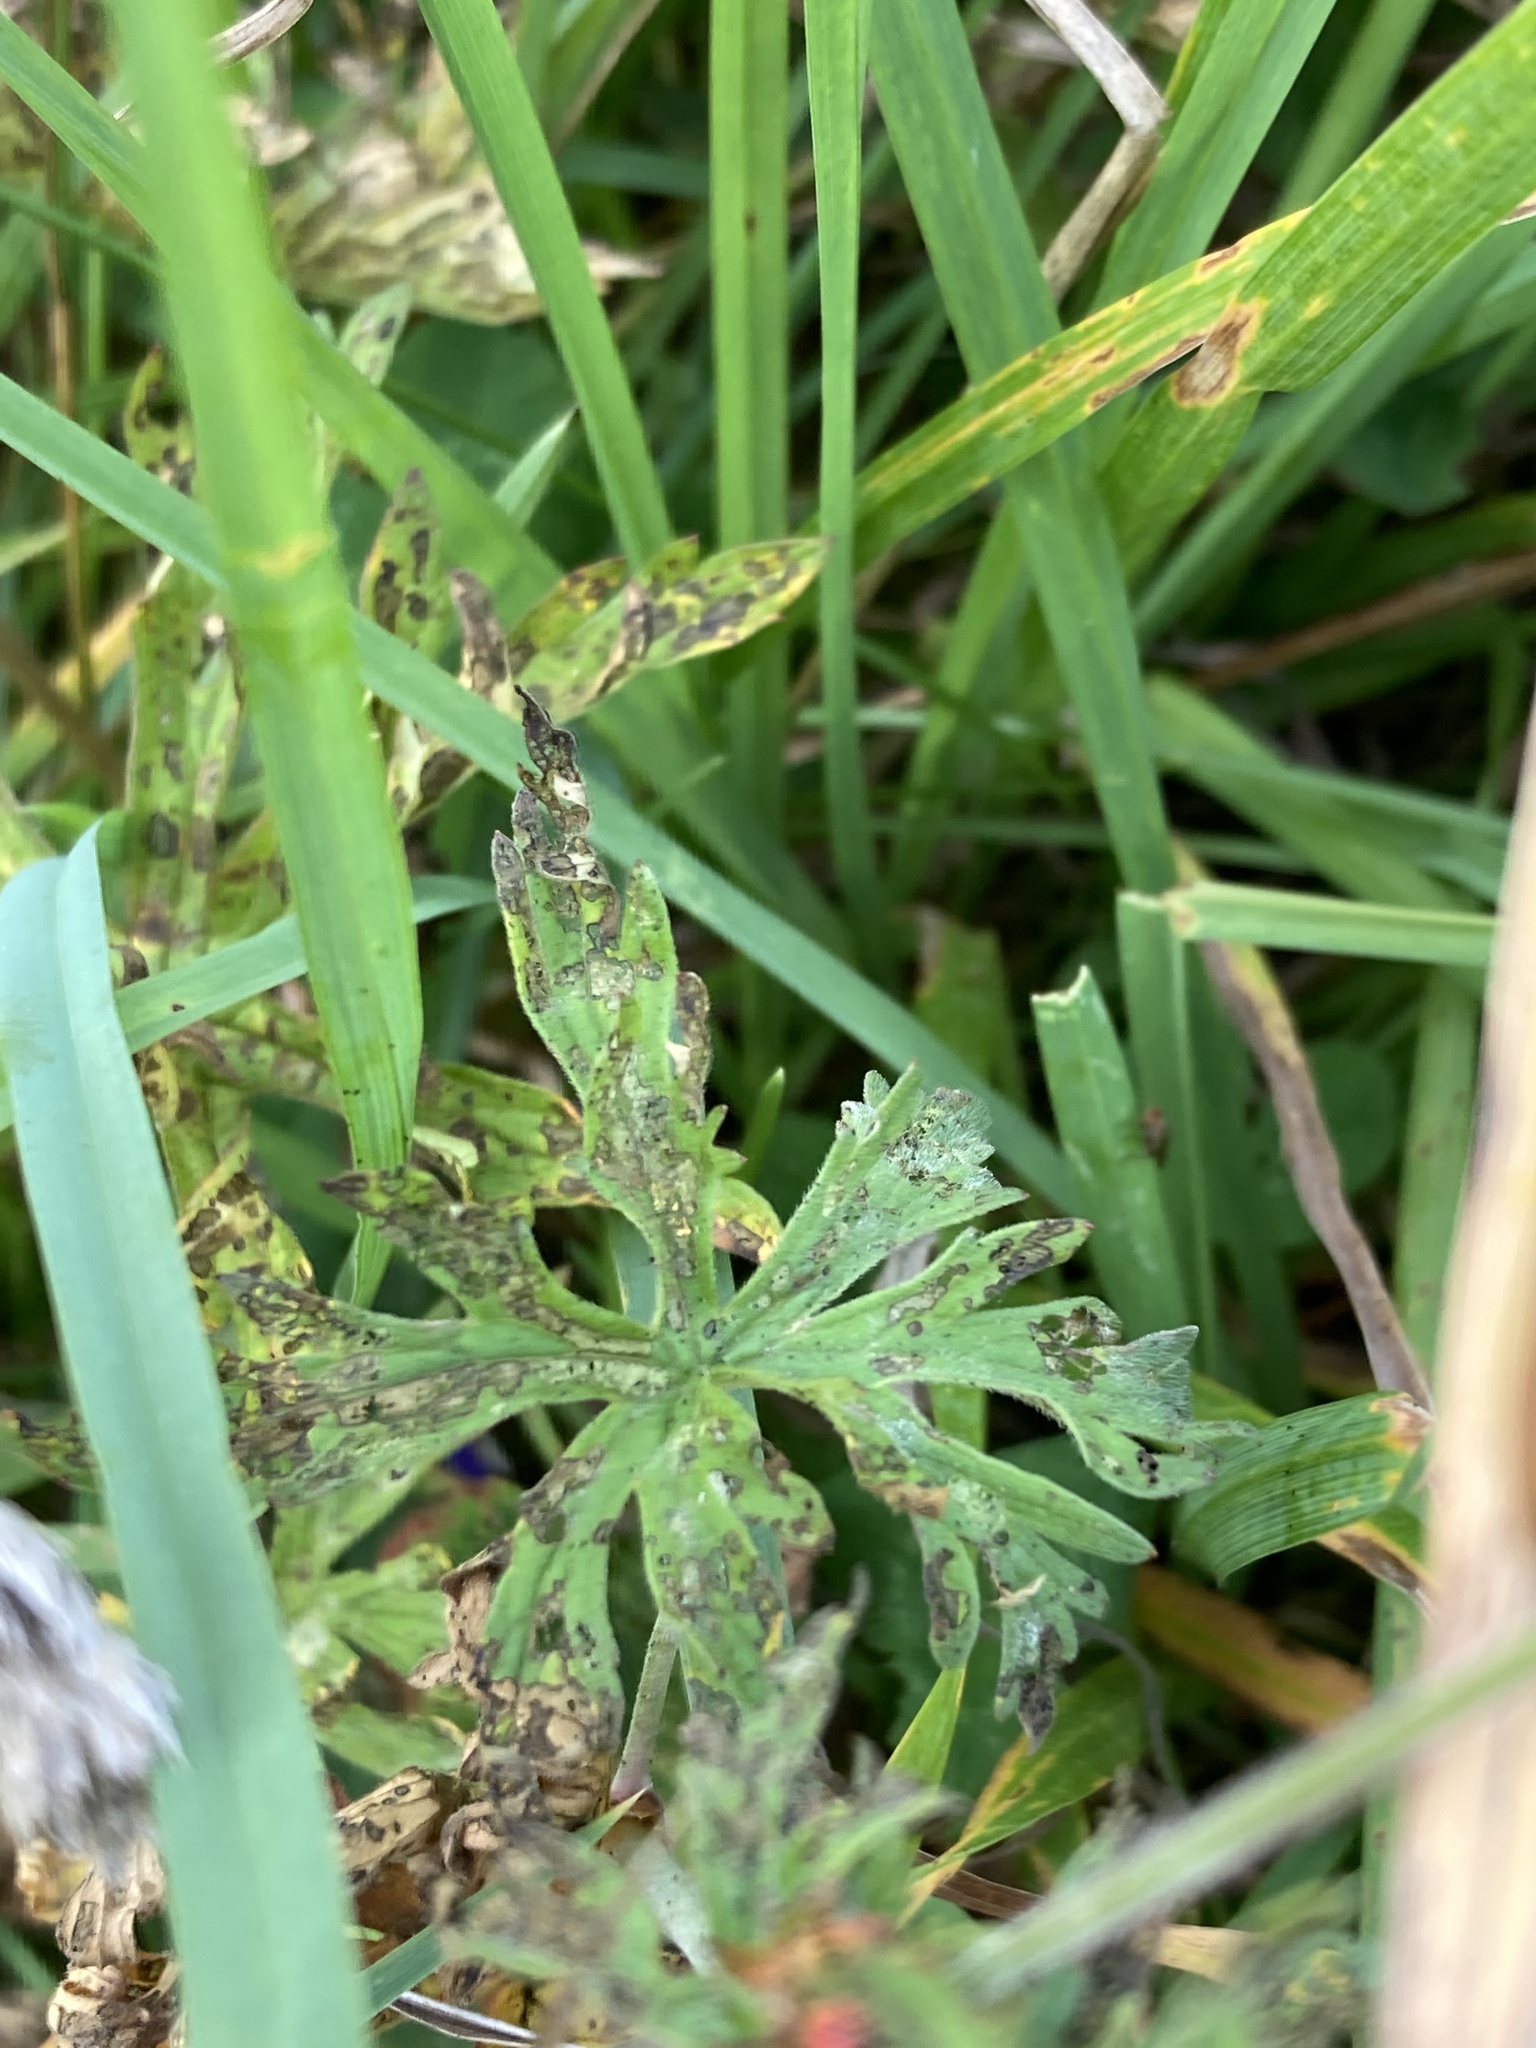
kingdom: Plantae
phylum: Tracheophyta
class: Magnoliopsida
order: Geraniales
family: Geraniaceae
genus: Geranium
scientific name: Geranium pratense
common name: Meadow crane's-bill
